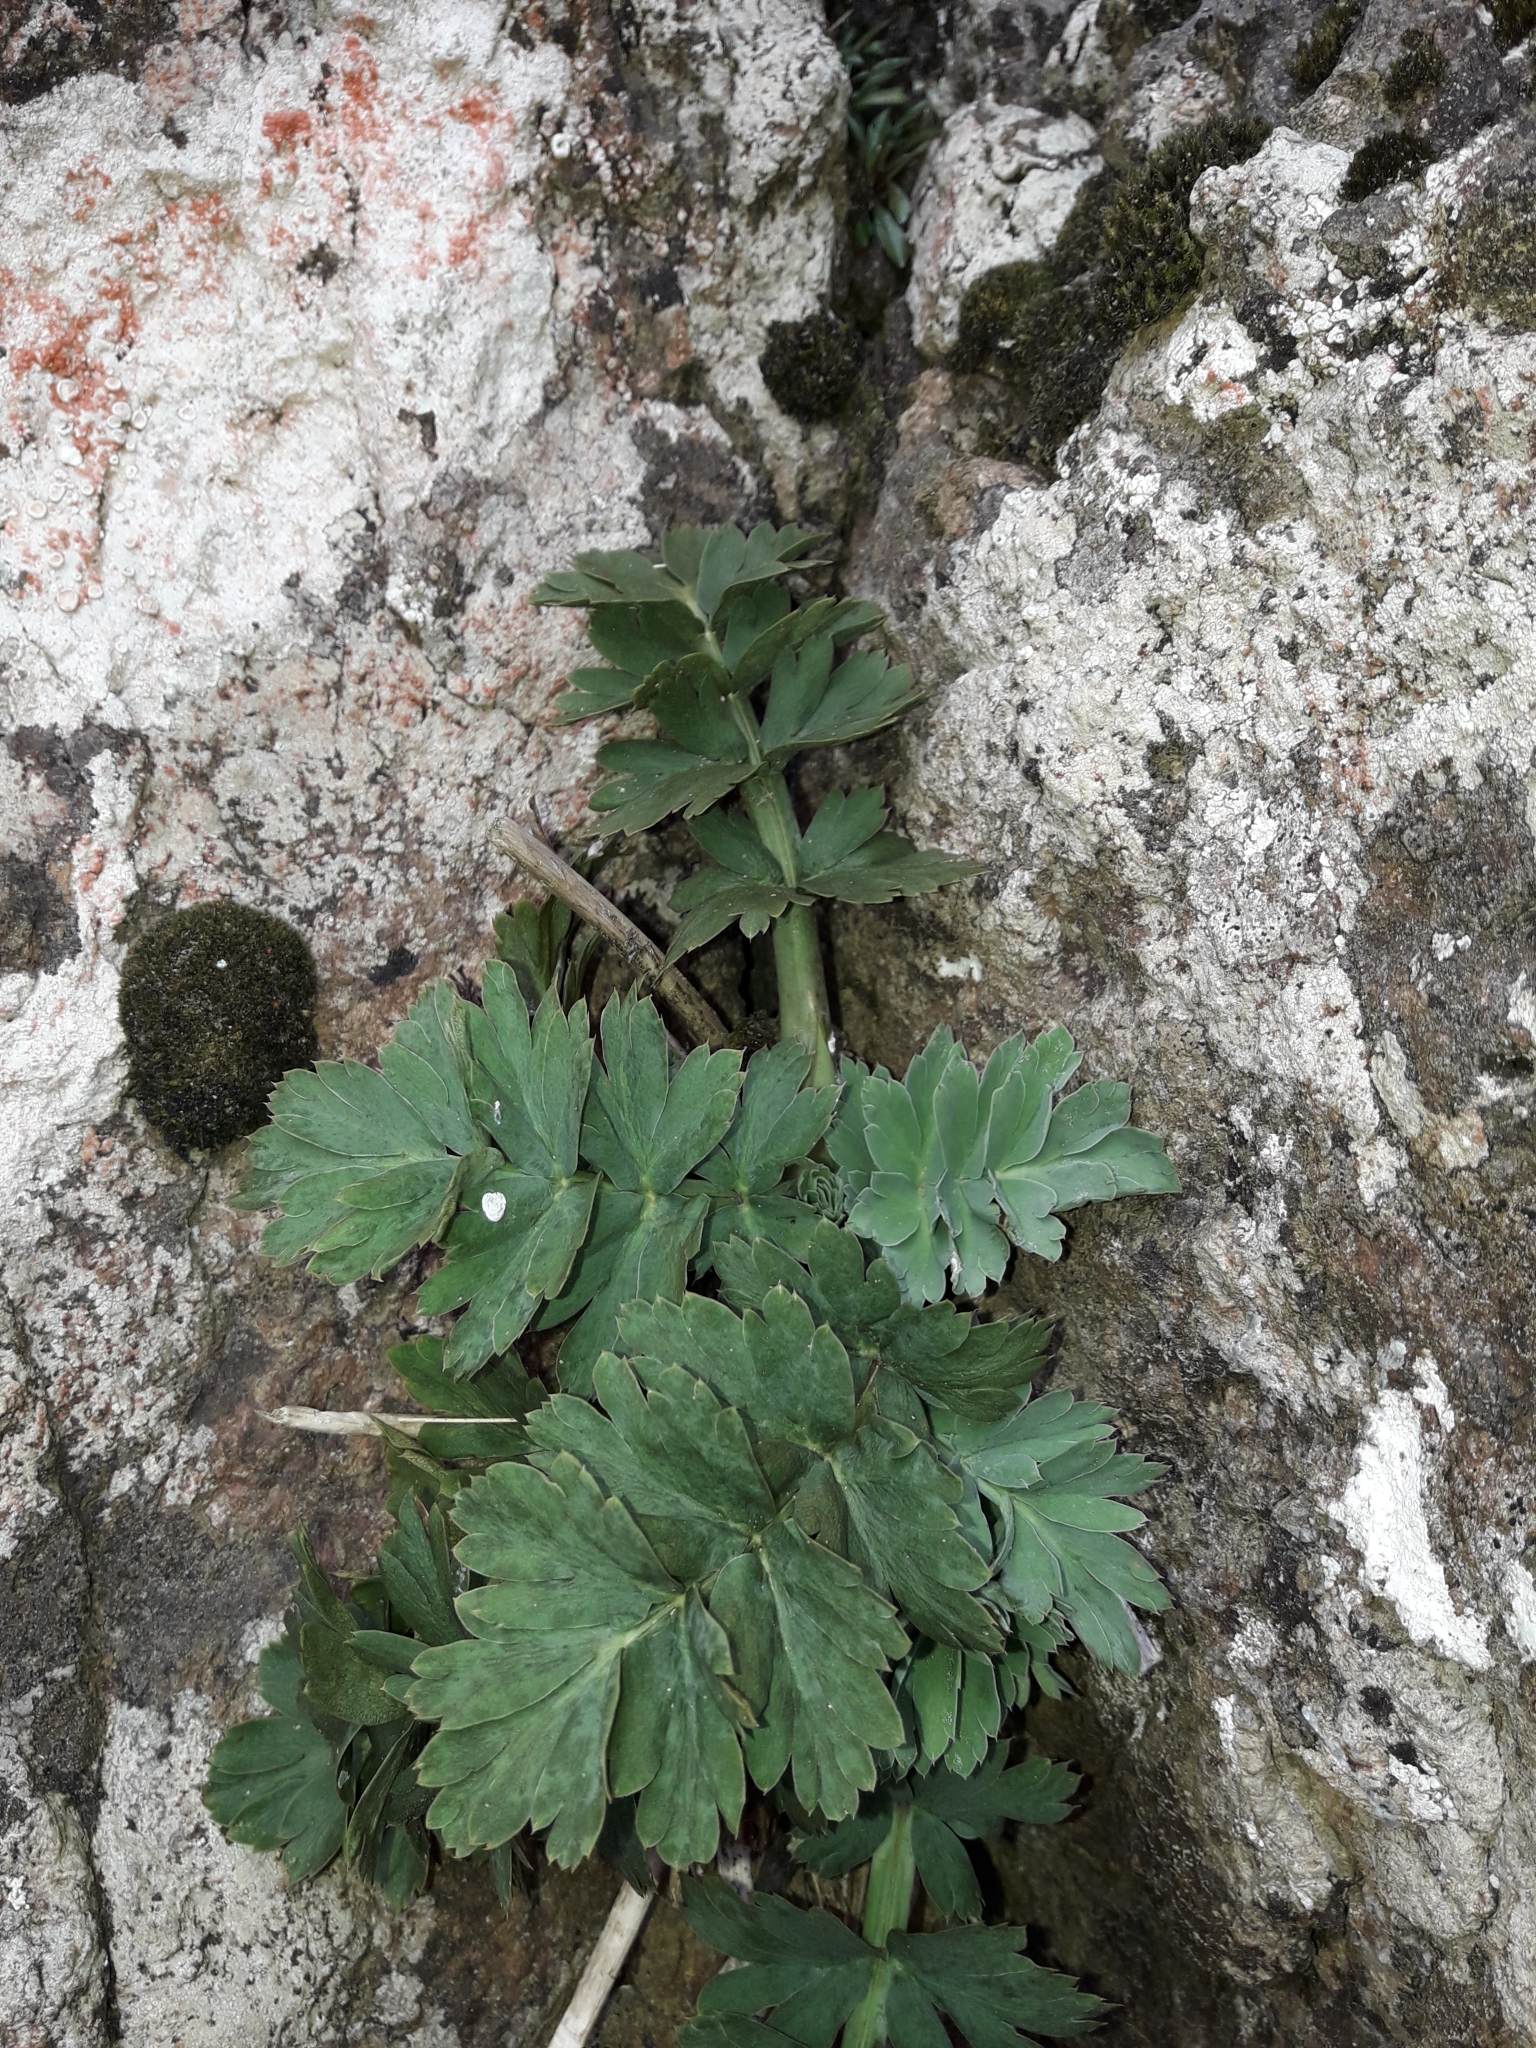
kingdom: Plantae
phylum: Tracheophyta
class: Magnoliopsida
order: Apiales
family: Apiaceae
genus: Anisotome
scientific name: Anisotome pilifera
